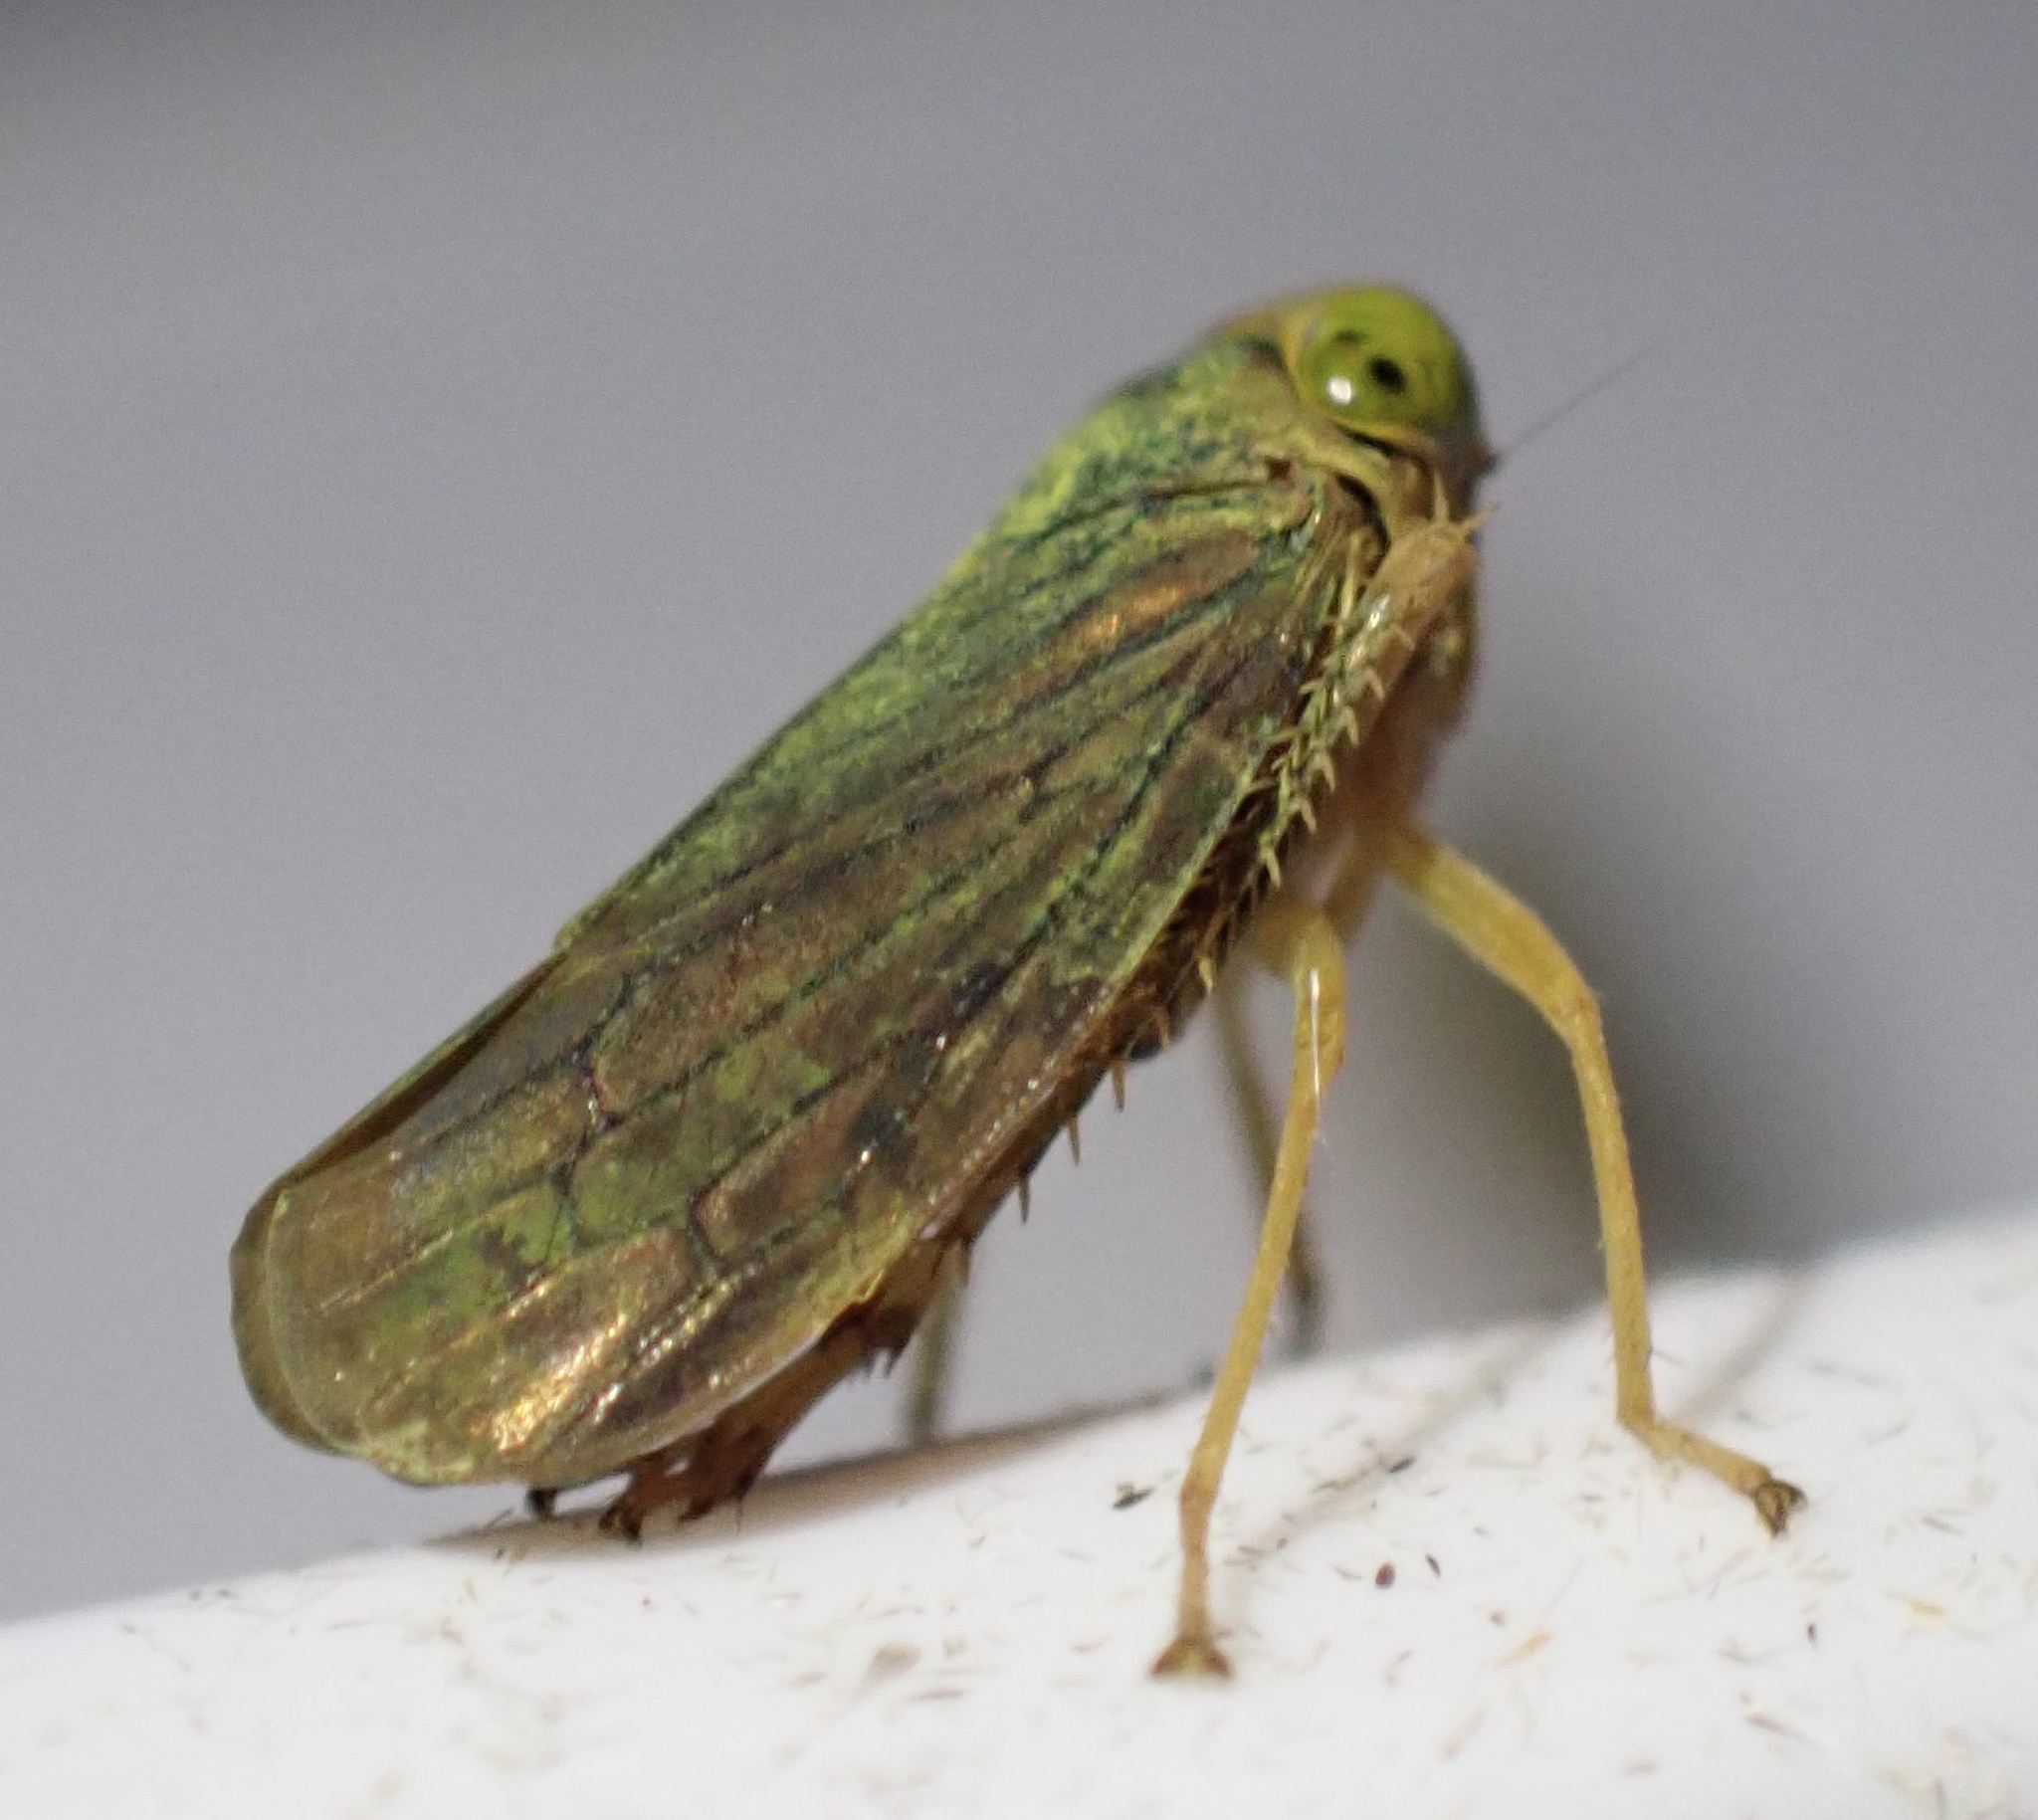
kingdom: Animalia
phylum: Arthropoda
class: Insecta
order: Hemiptera
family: Cicadellidae
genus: Jikradia
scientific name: Jikradia olitoria
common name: Coppery leafhopper
